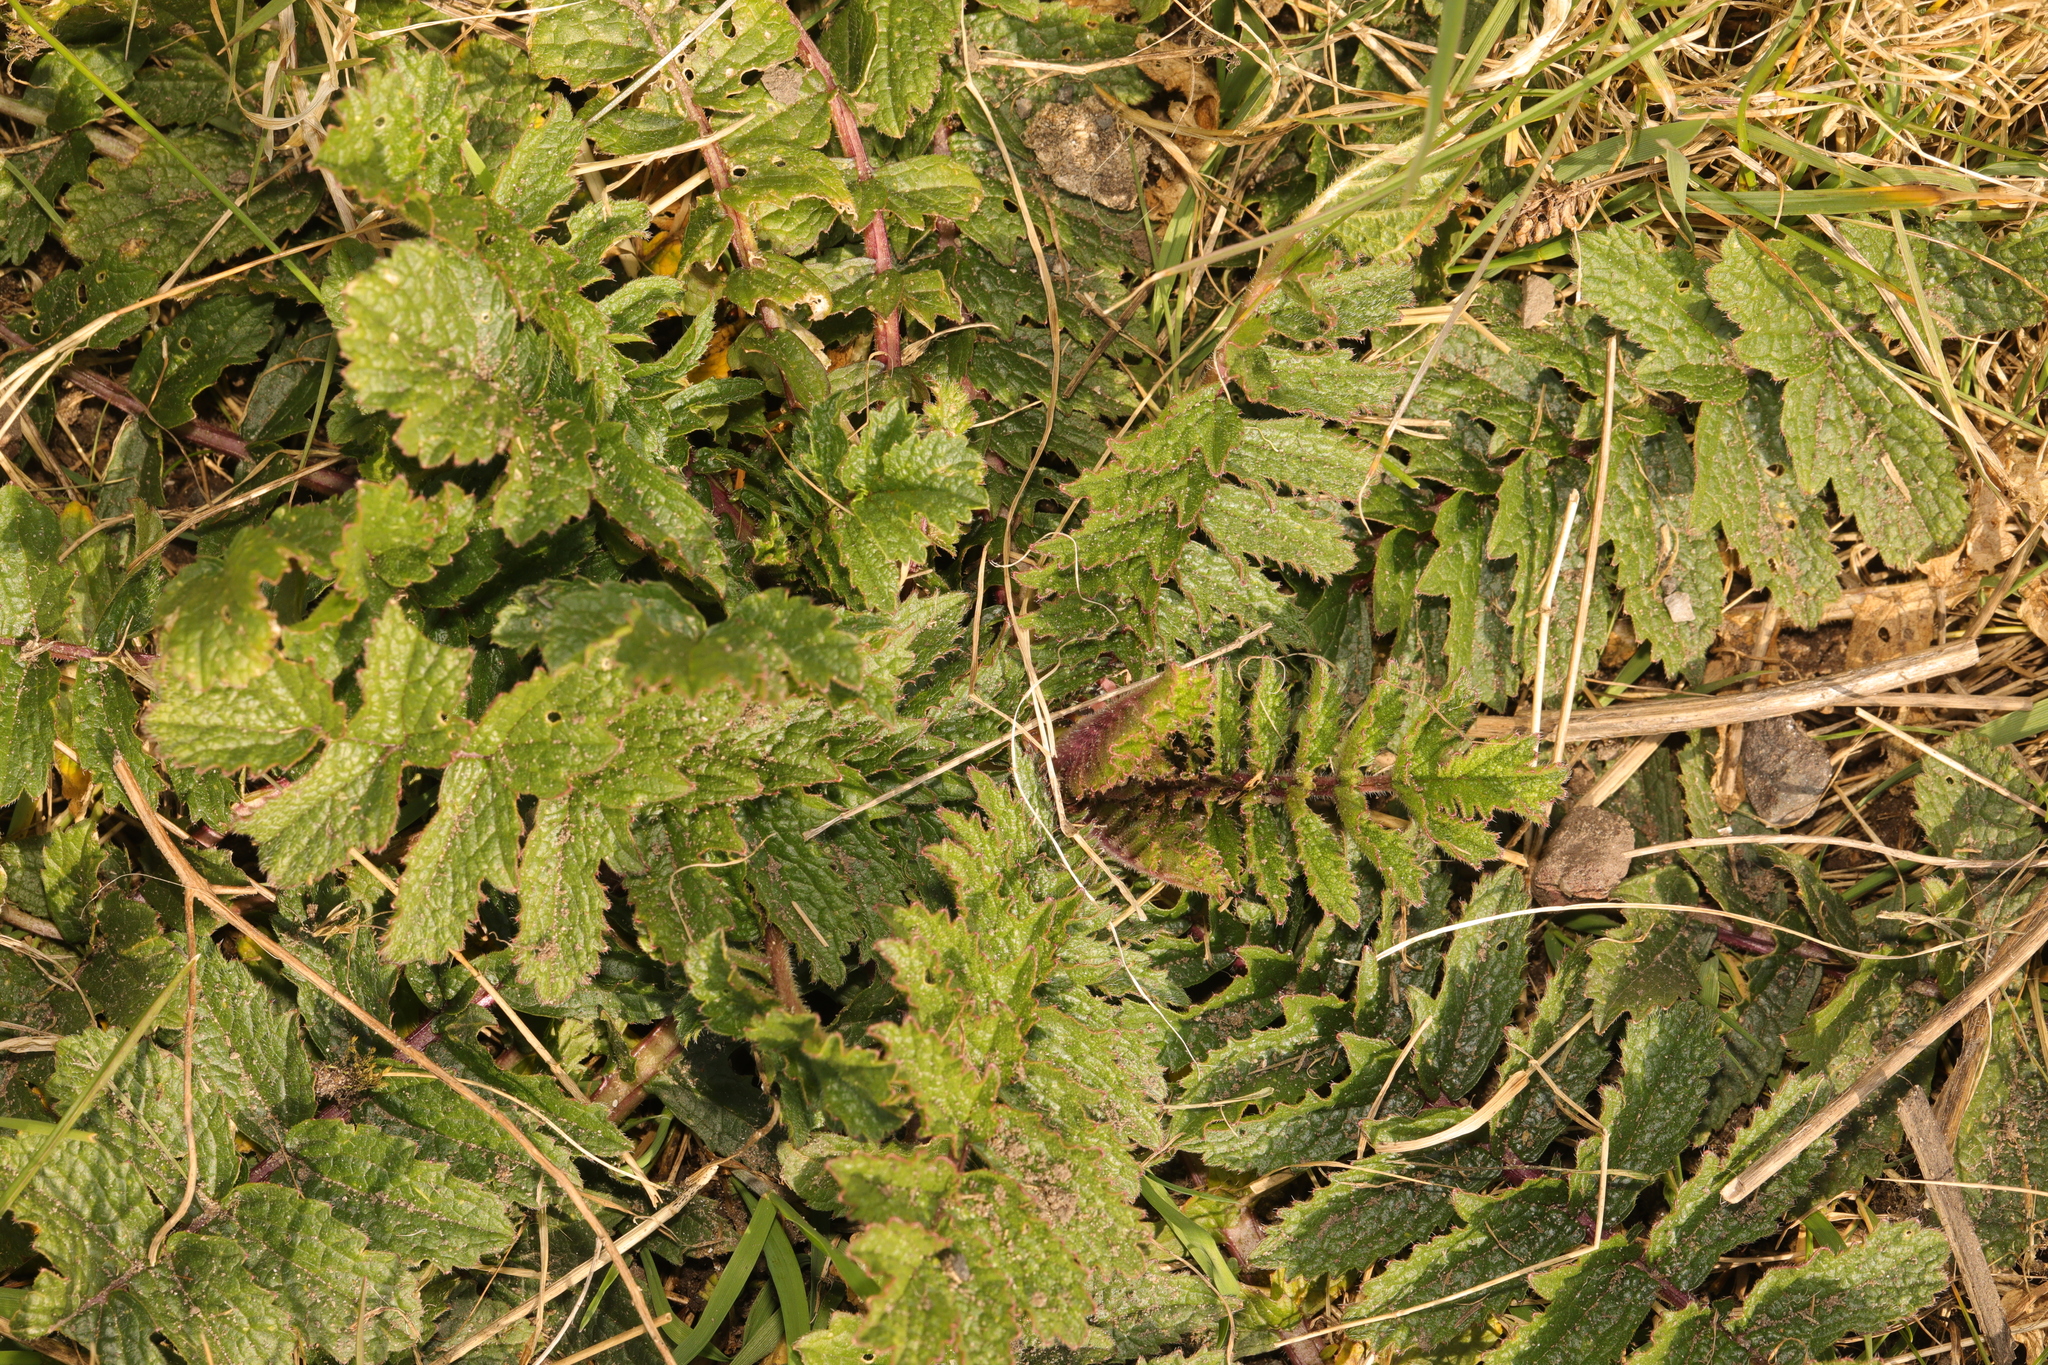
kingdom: Plantae
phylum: Tracheophyta
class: Magnoliopsida
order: Brassicales
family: Brassicaceae
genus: Raphanus
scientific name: Raphanus raphanistrum
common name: Wild radish
